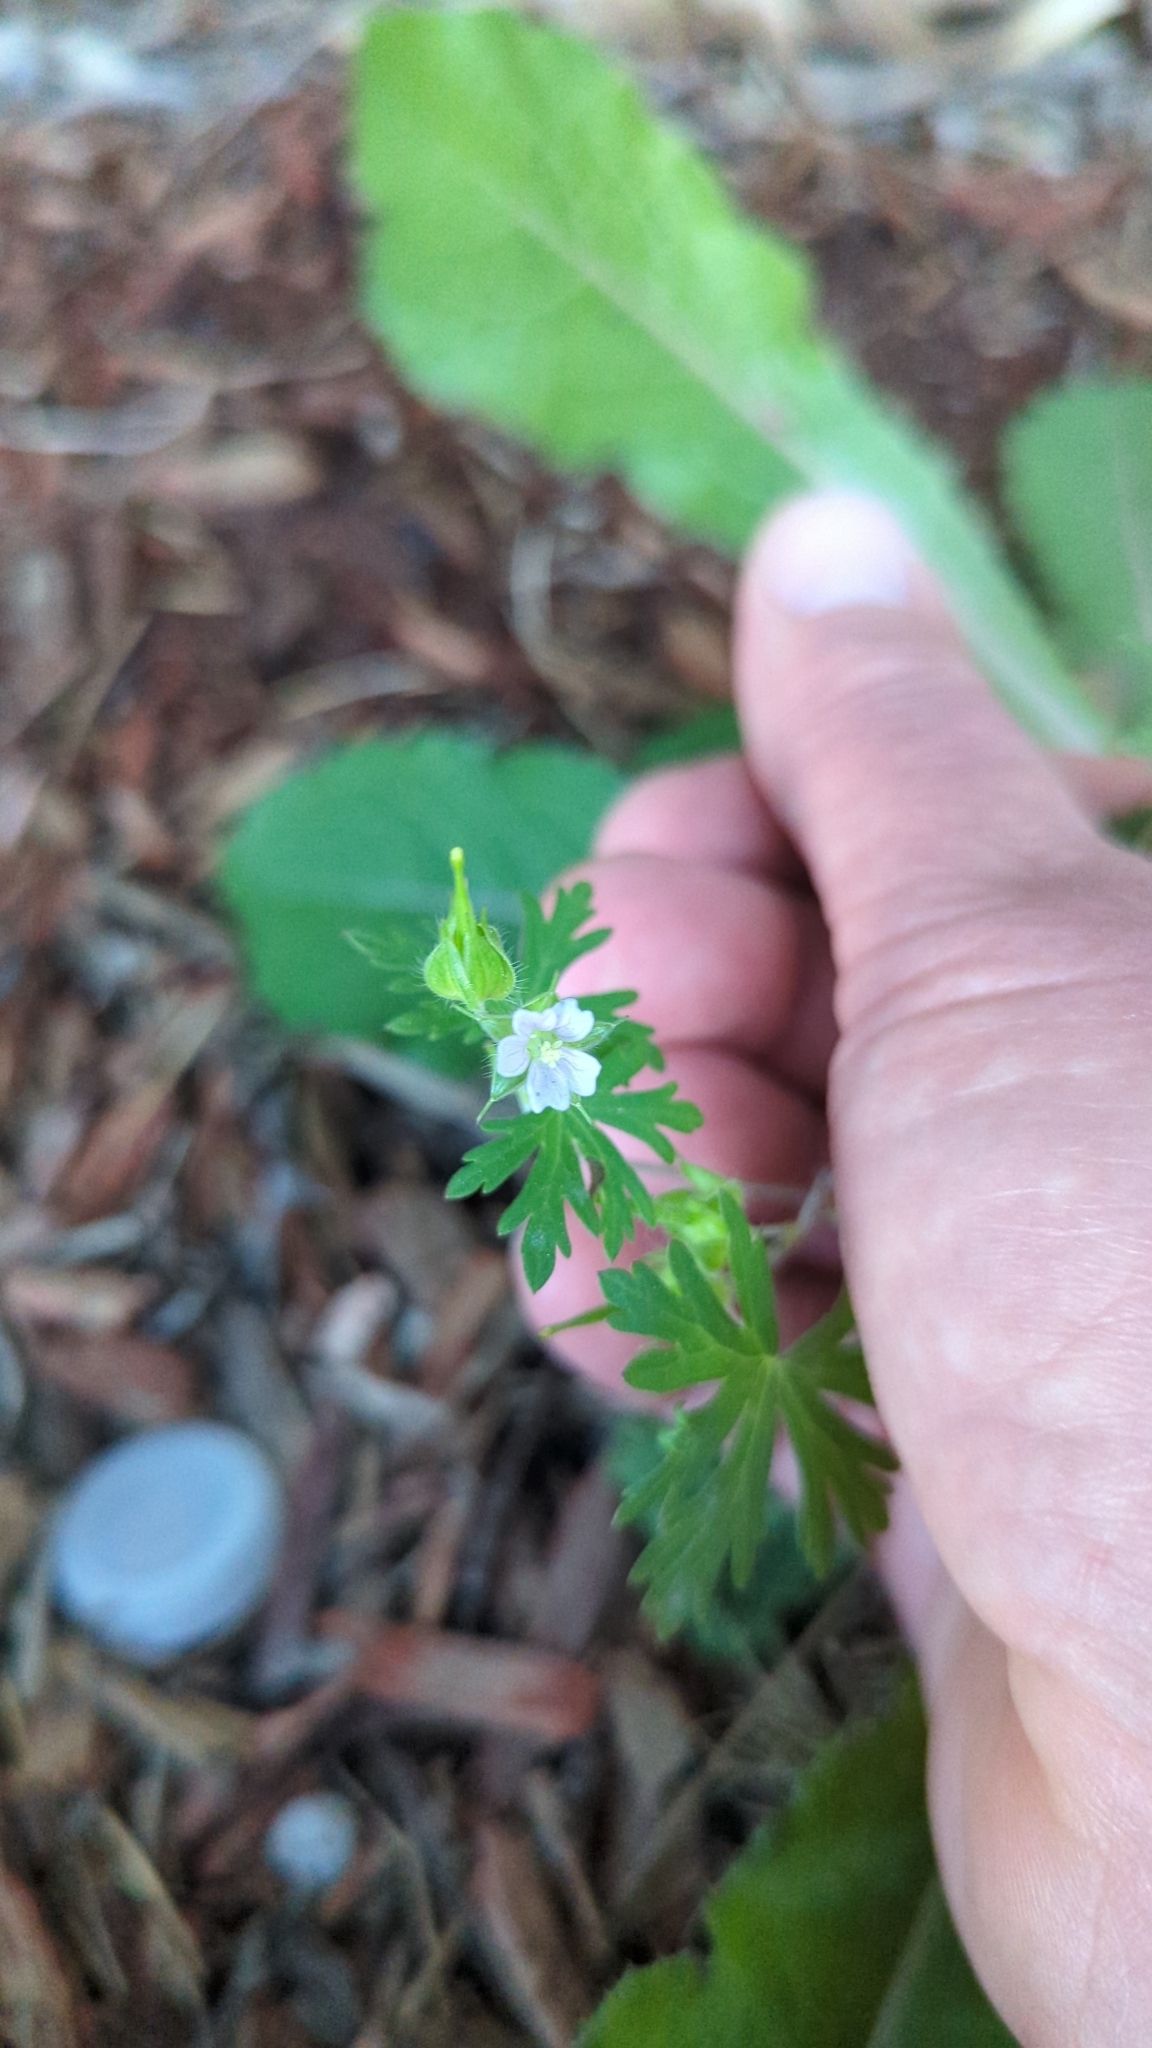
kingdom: Plantae
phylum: Tracheophyta
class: Magnoliopsida
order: Geraniales
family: Geraniaceae
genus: Geranium
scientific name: Geranium carolinianum
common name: Carolina crane's-bill
